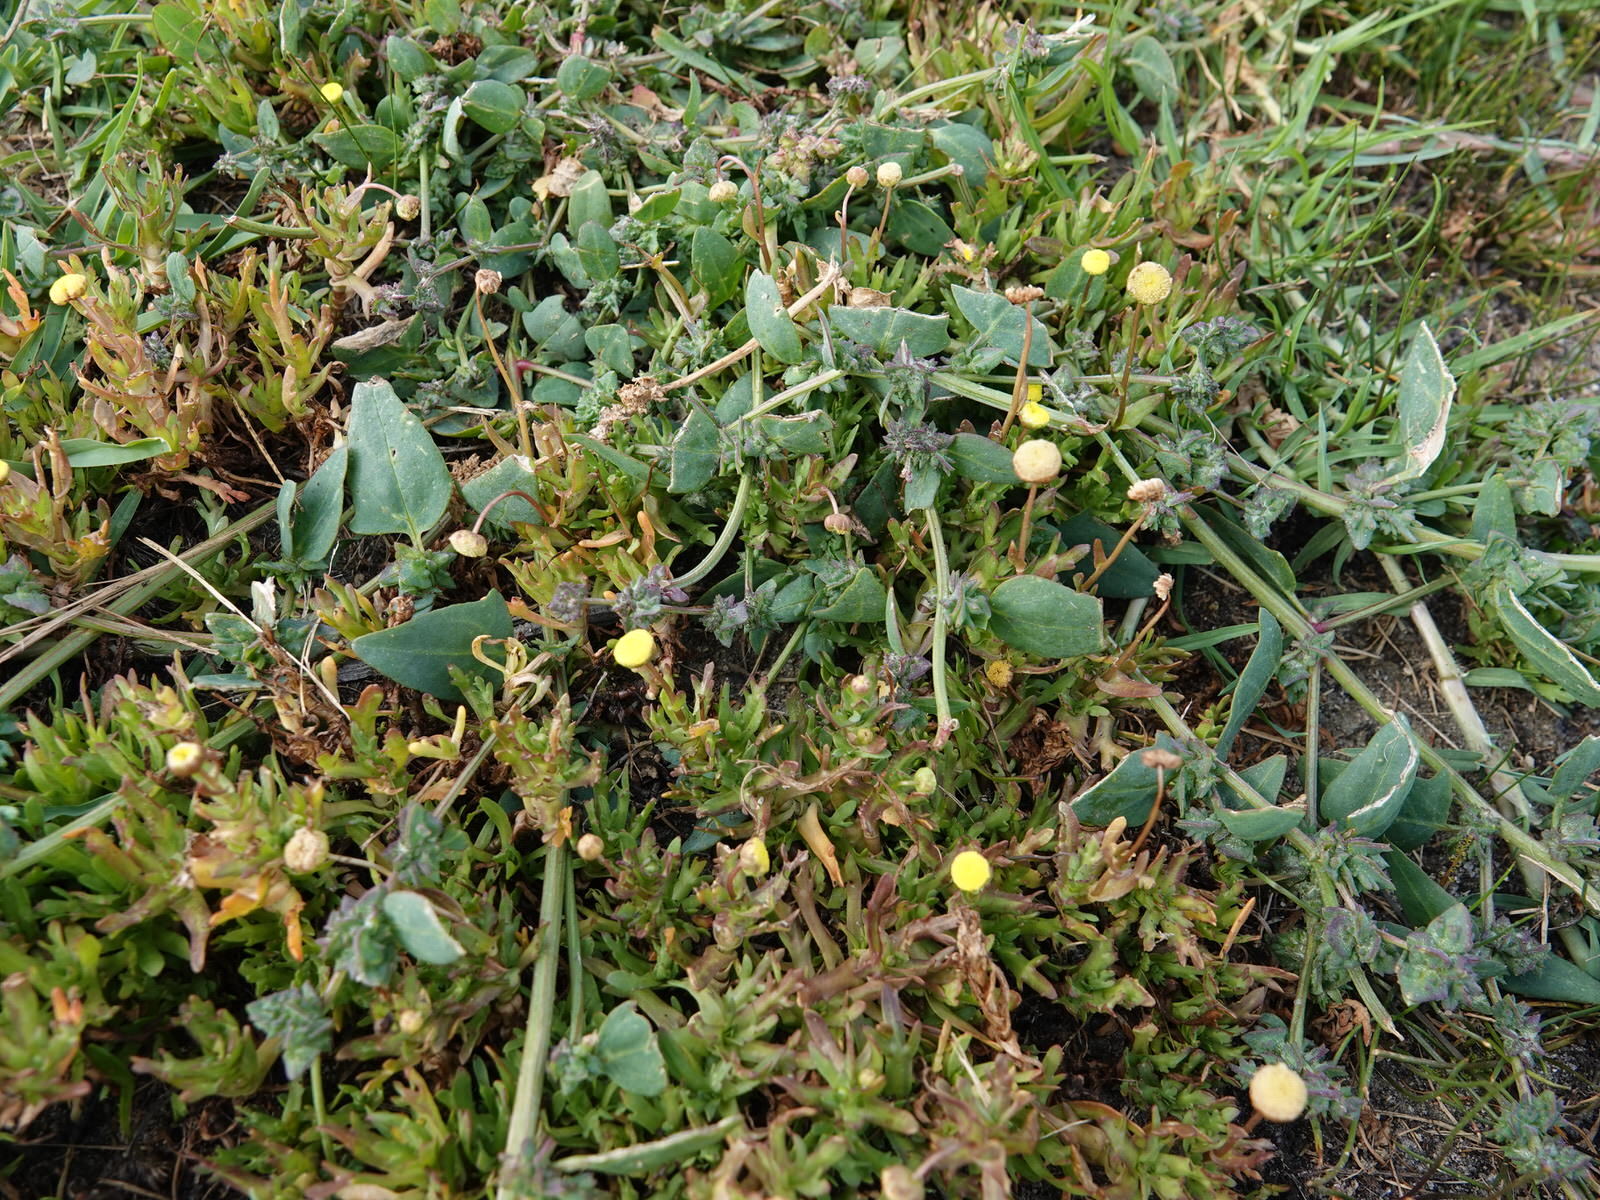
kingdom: Plantae
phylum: Tracheophyta
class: Magnoliopsida
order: Asterales
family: Asteraceae
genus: Cotula
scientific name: Cotula coronopifolia
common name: Buttonweed
